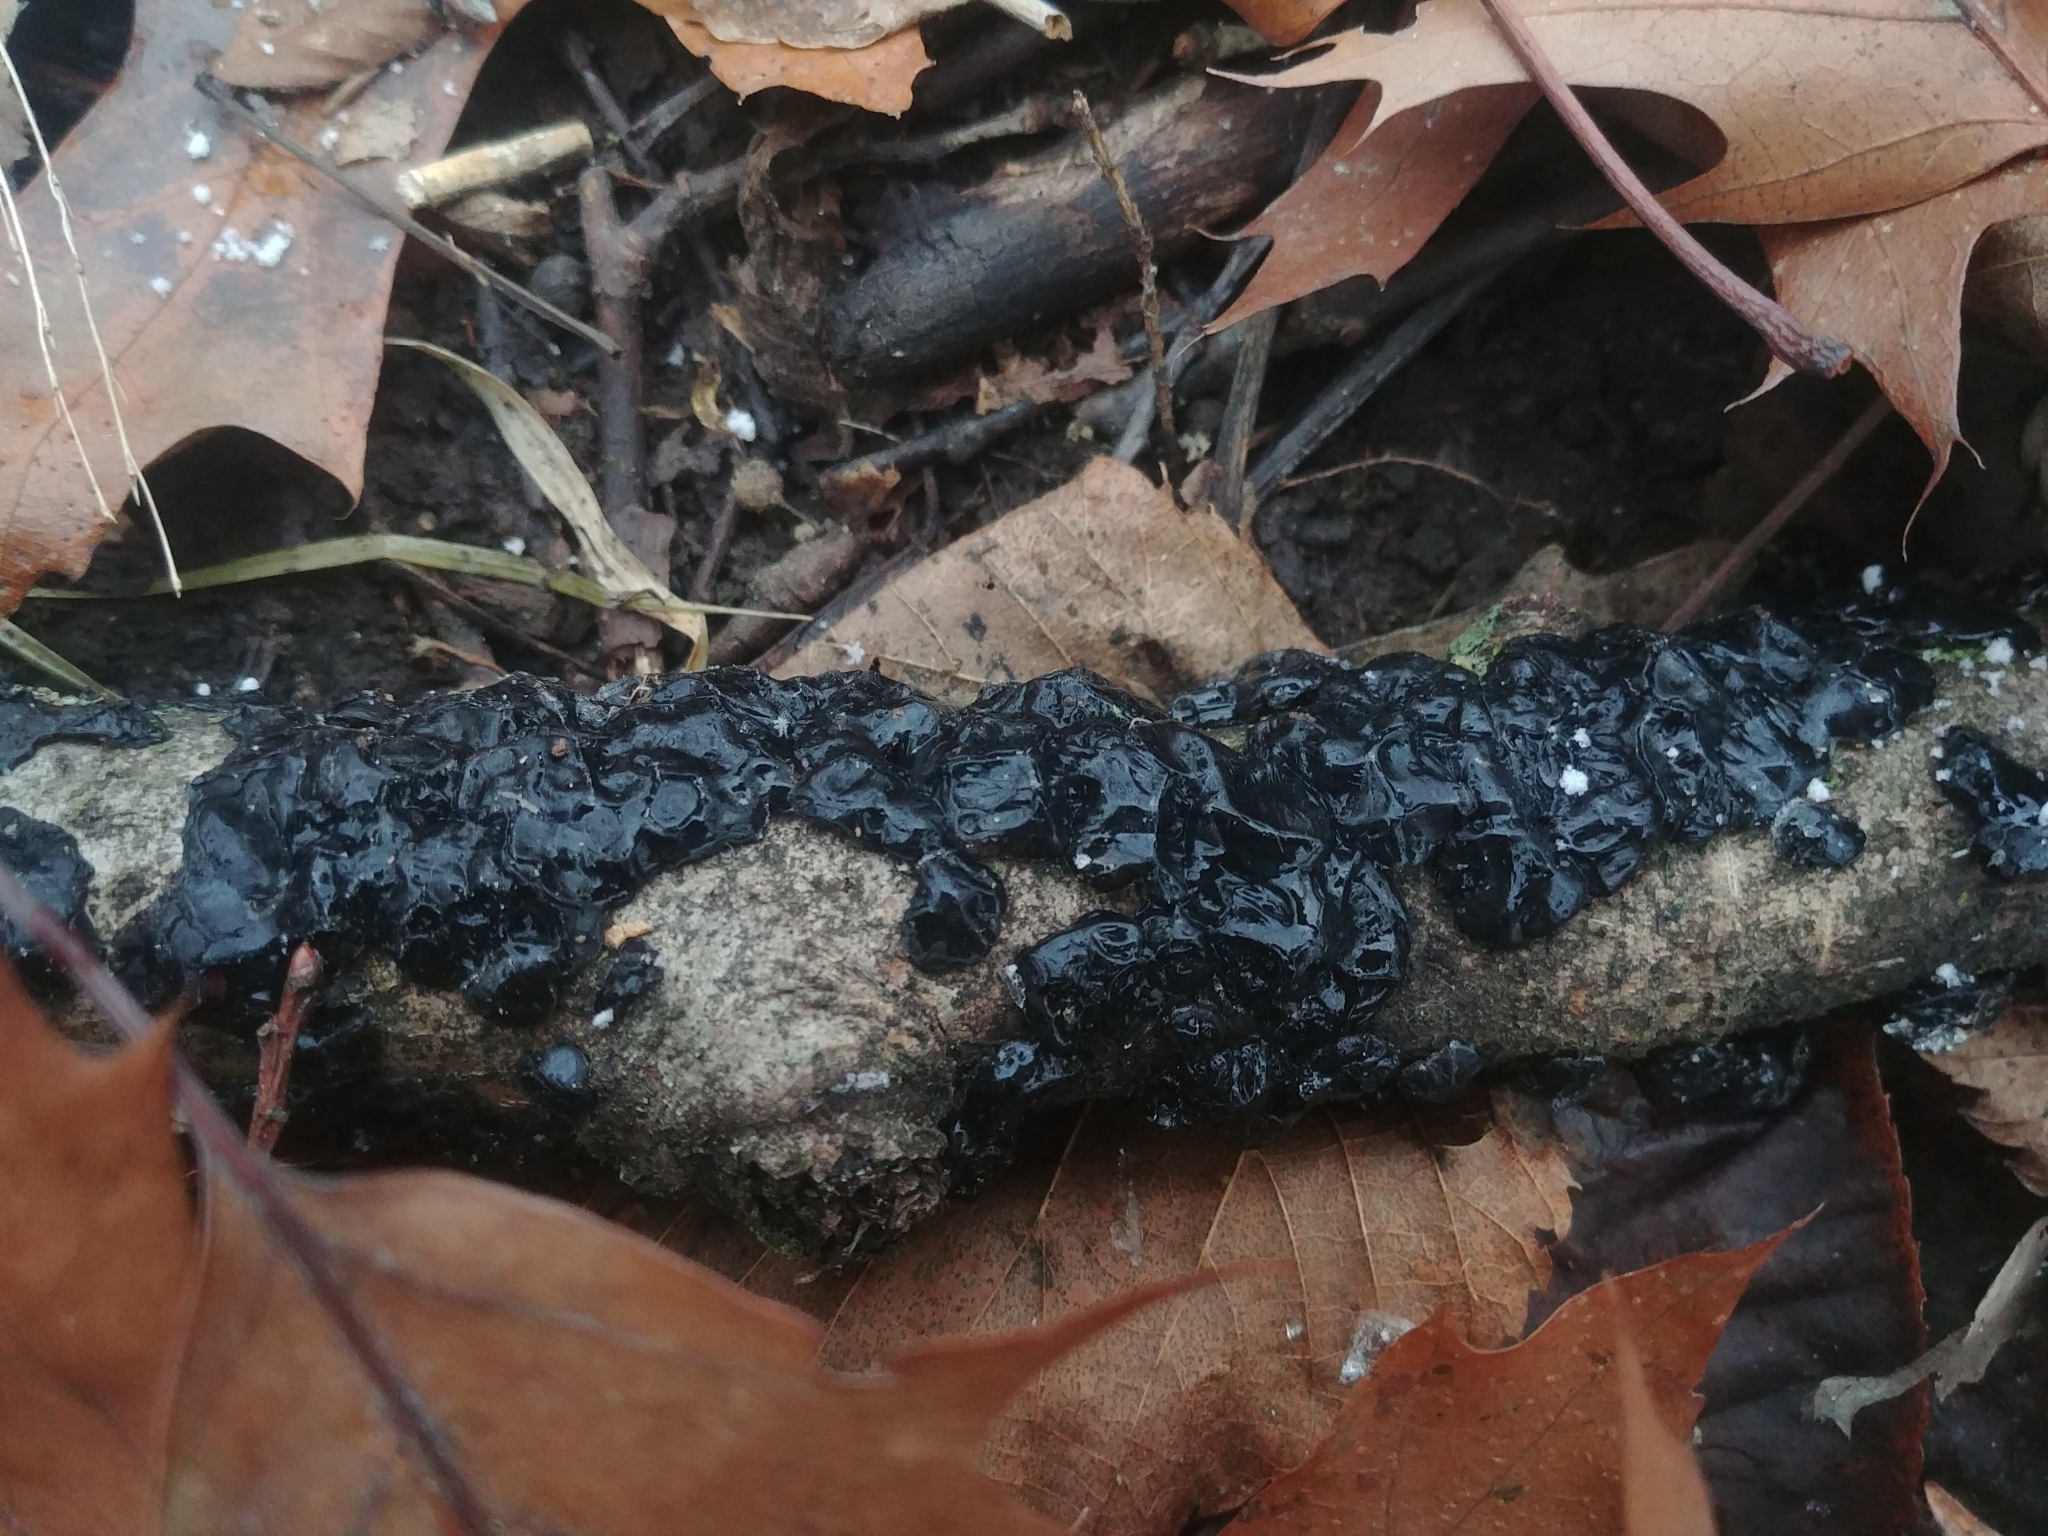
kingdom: Fungi
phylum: Basidiomycota
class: Agaricomycetes
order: Auriculariales
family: Auriculariaceae
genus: Exidia
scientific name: Exidia glandulosa
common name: Witches' butter
